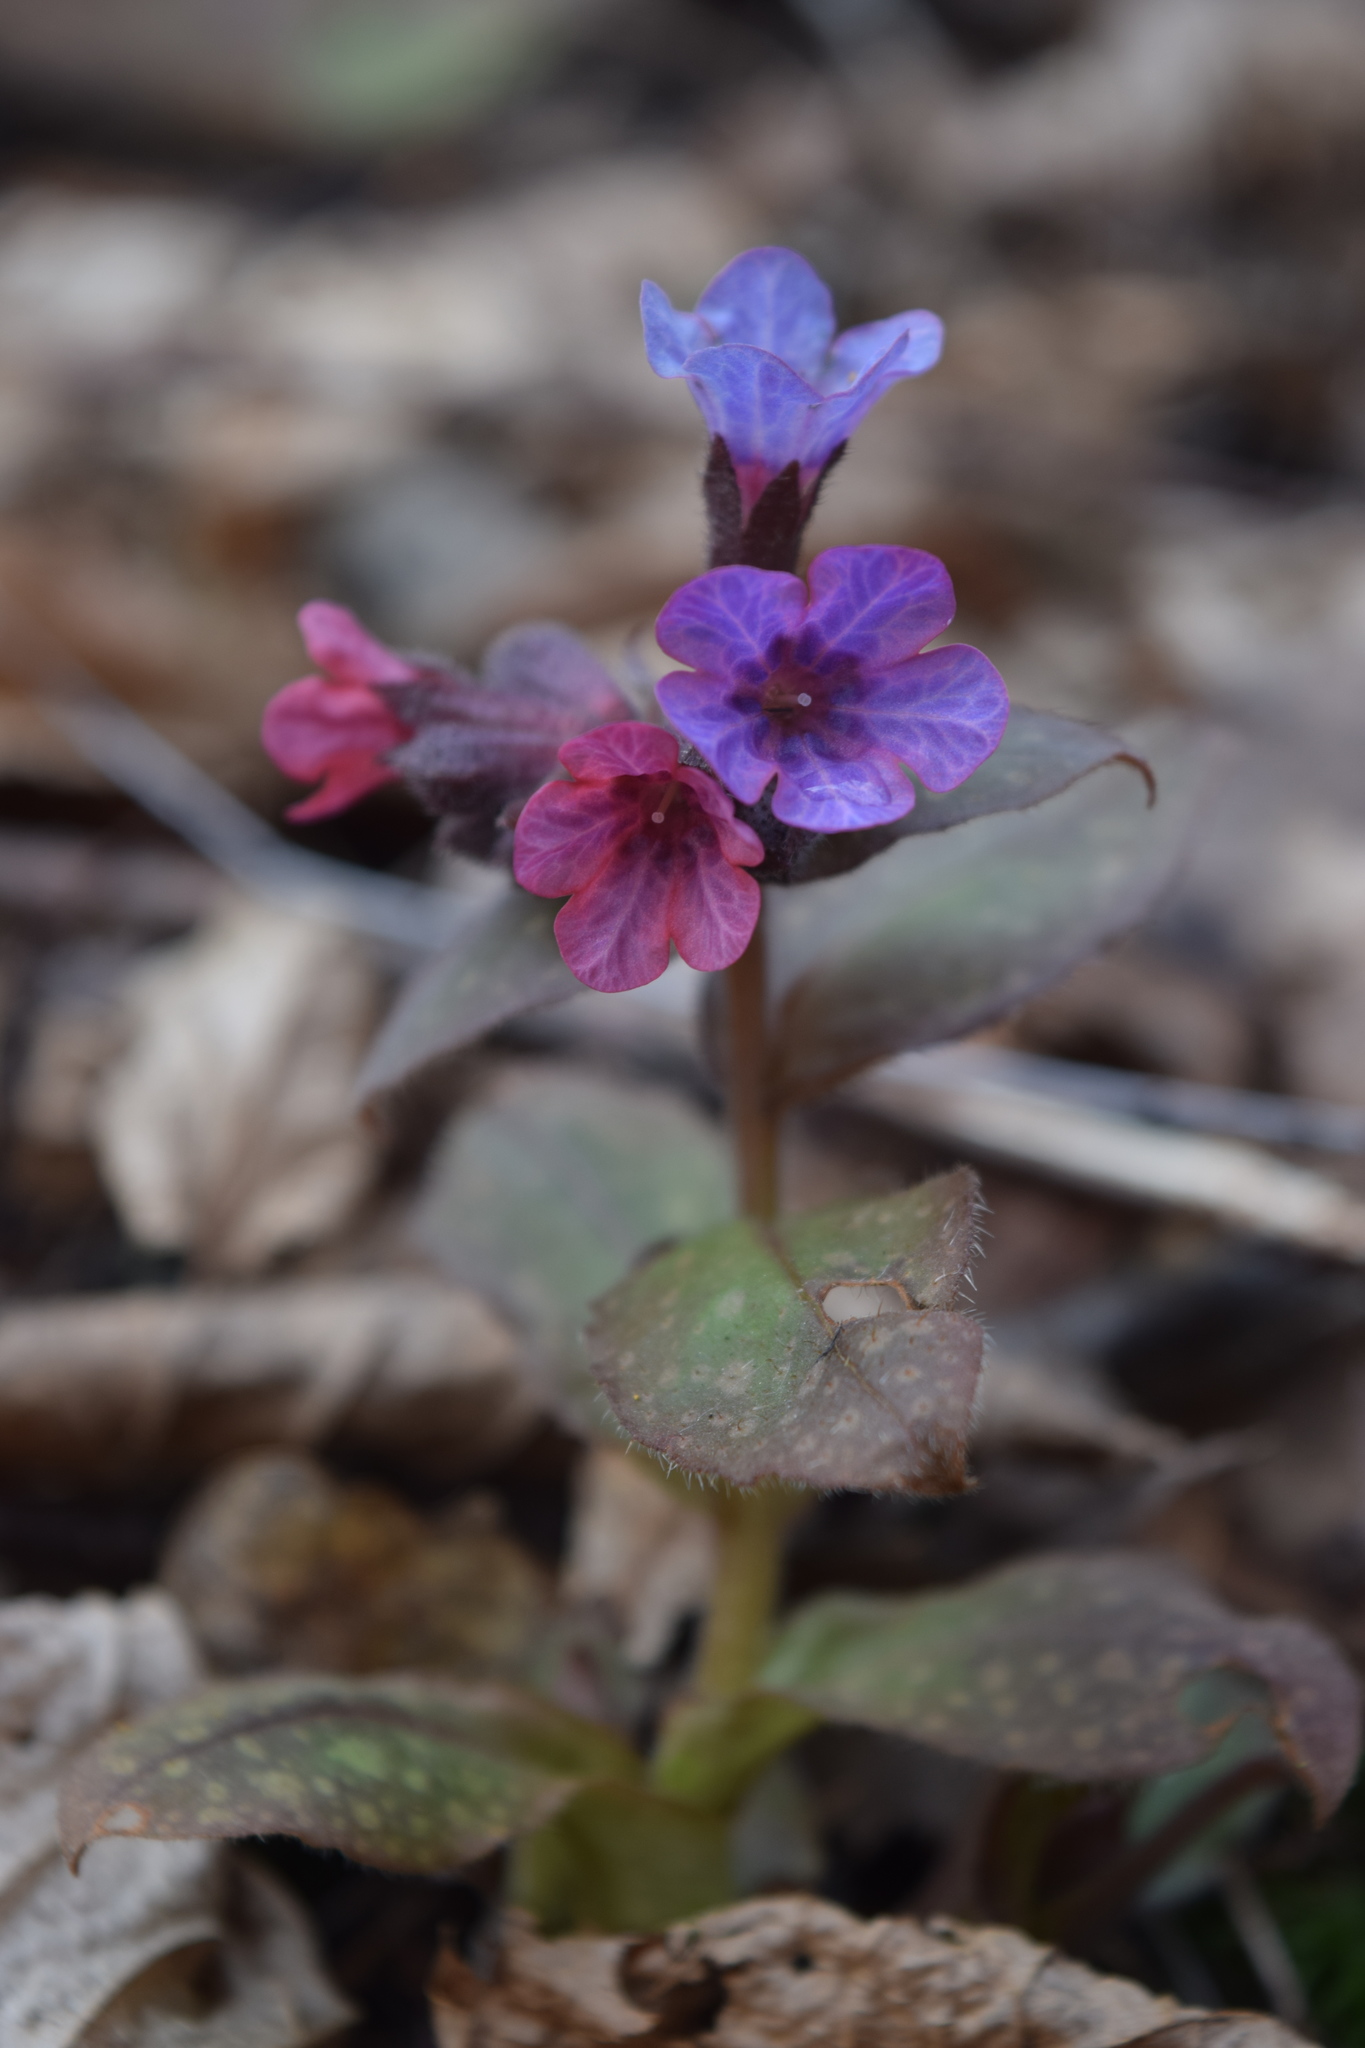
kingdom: Plantae
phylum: Tracheophyta
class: Magnoliopsida
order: Boraginales
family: Boraginaceae
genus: Pulmonaria
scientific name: Pulmonaria obscura
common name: Suffolk lungwort
